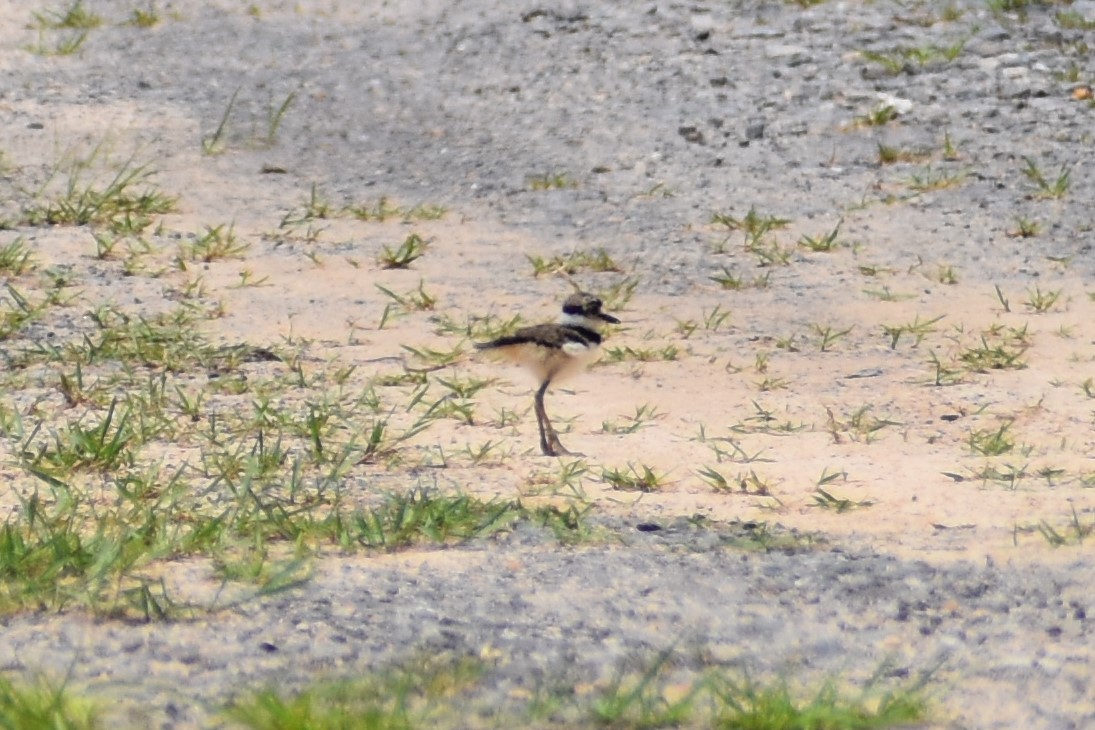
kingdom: Animalia
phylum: Chordata
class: Aves
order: Charadriiformes
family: Charadriidae
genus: Charadrius
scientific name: Charadrius vociferus
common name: Killdeer
